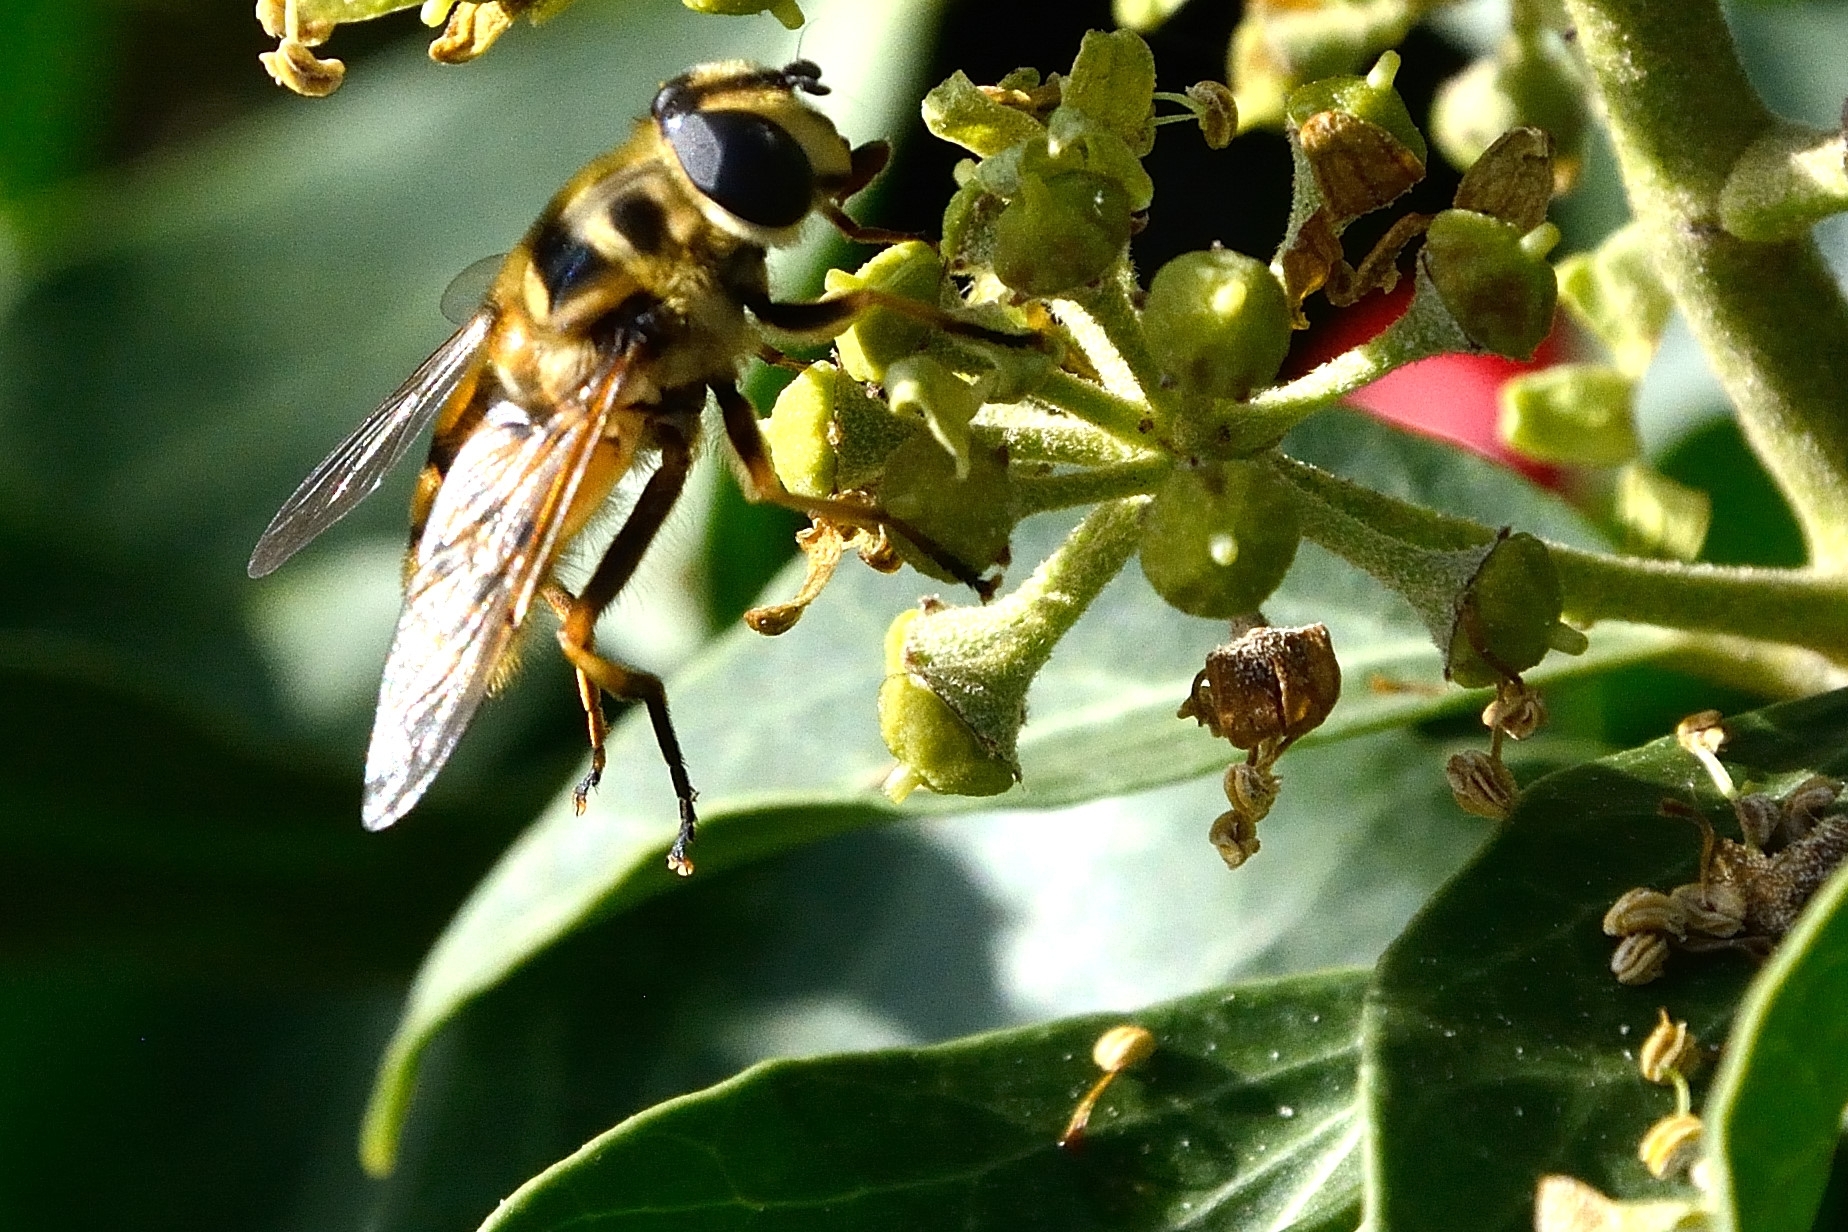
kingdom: Animalia
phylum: Arthropoda
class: Insecta
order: Diptera
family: Syrphidae
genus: Myathropa
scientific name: Myathropa florea
